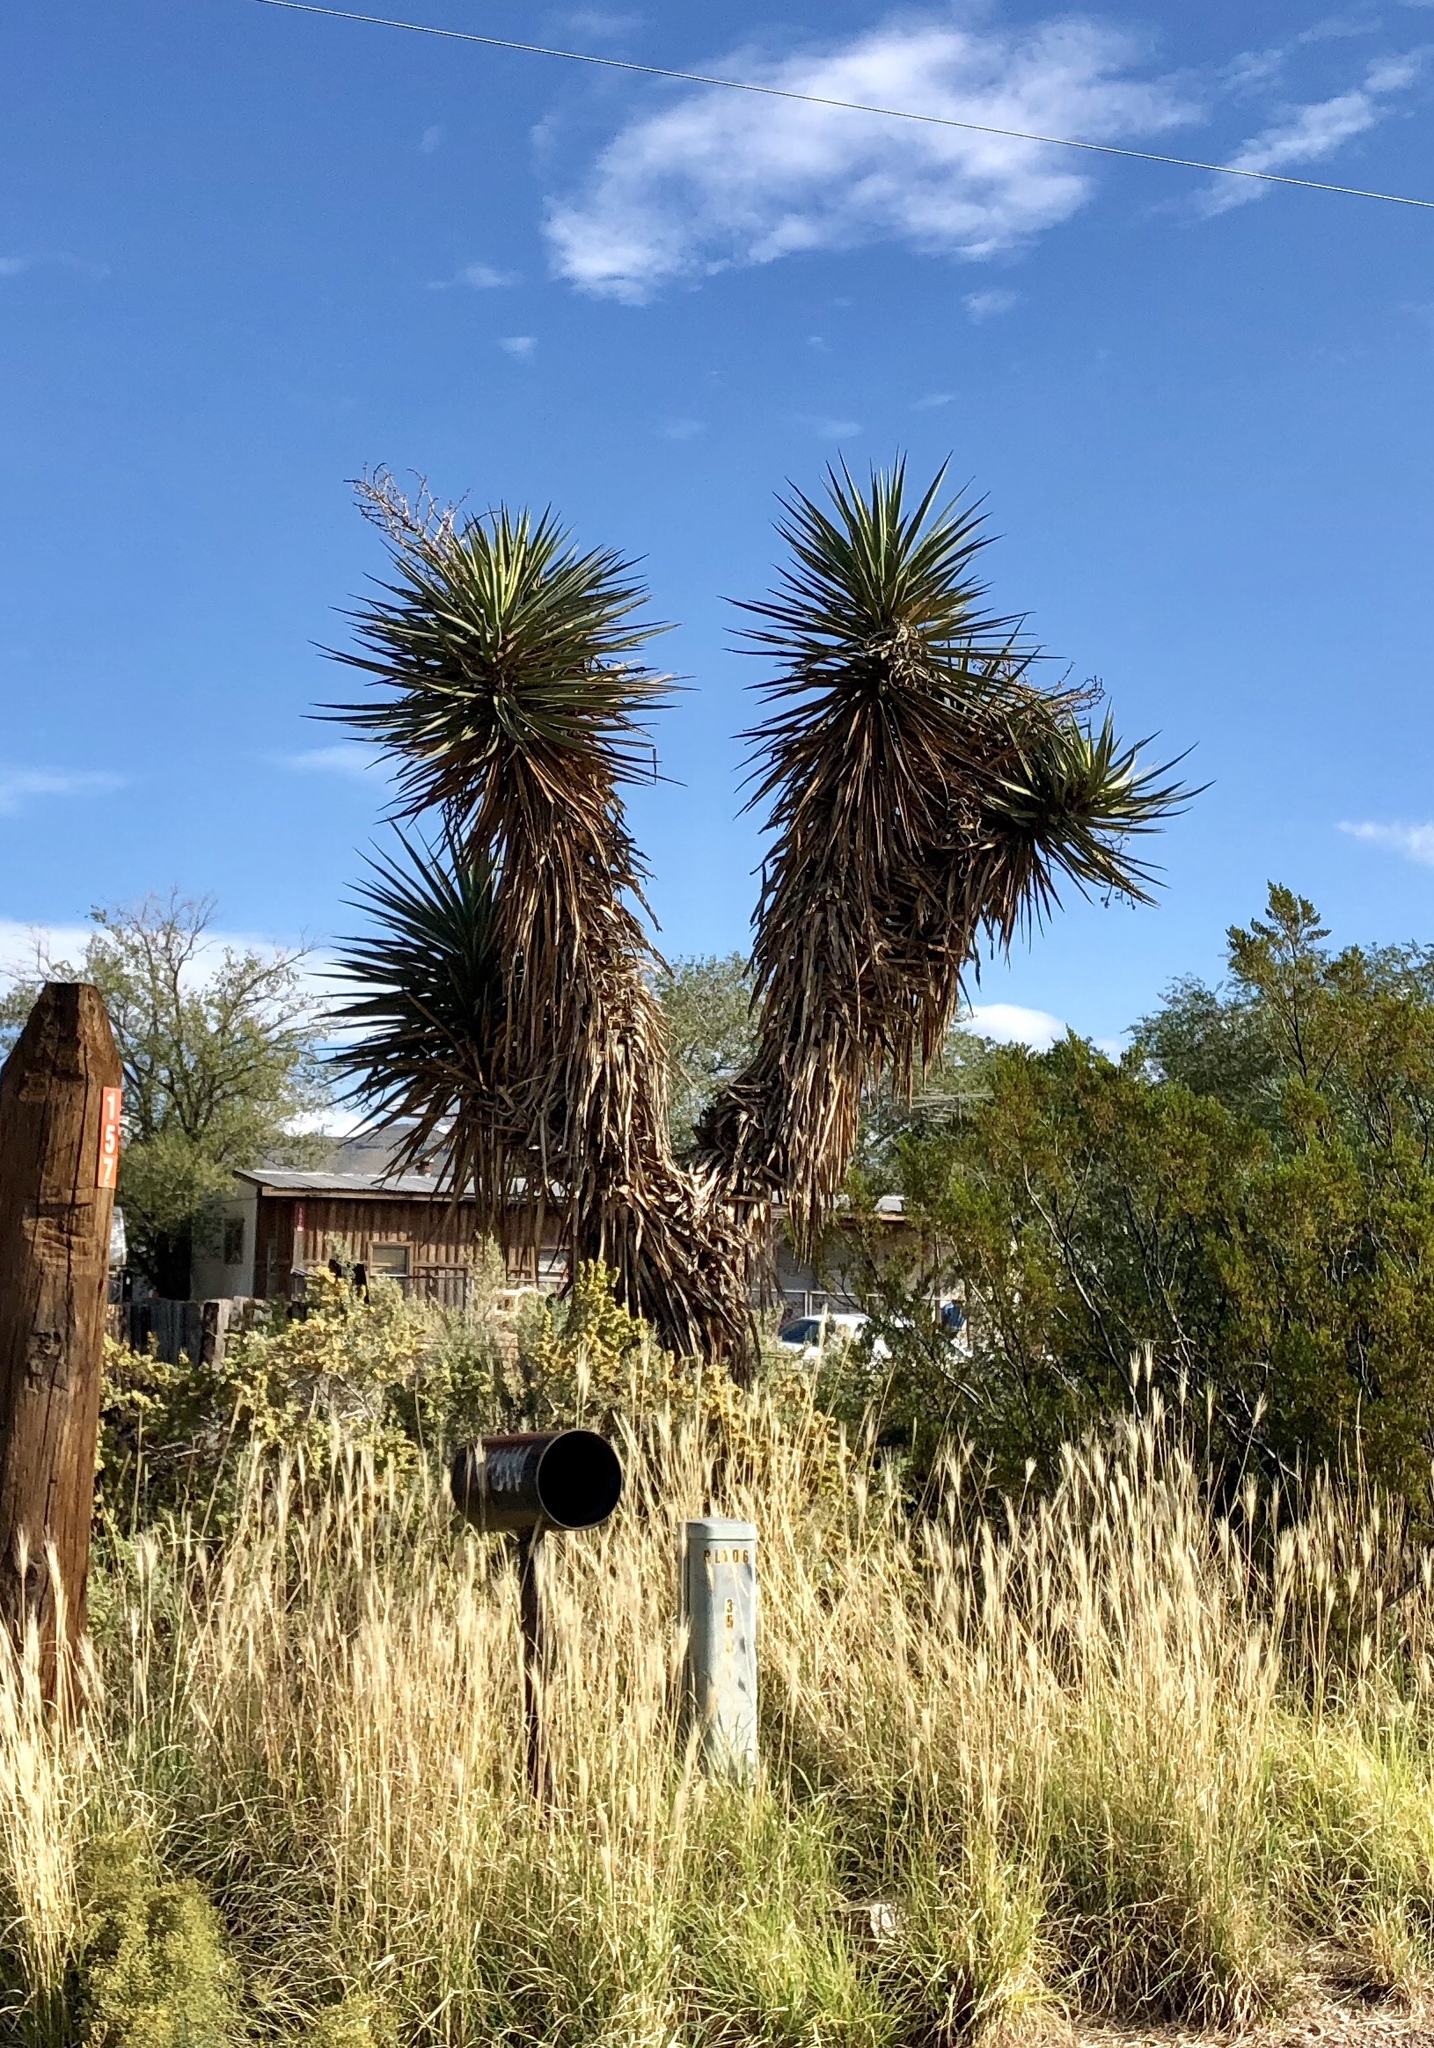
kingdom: Plantae
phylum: Tracheophyta
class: Liliopsida
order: Asparagales
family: Asparagaceae
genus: Yucca
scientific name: Yucca treculiana
